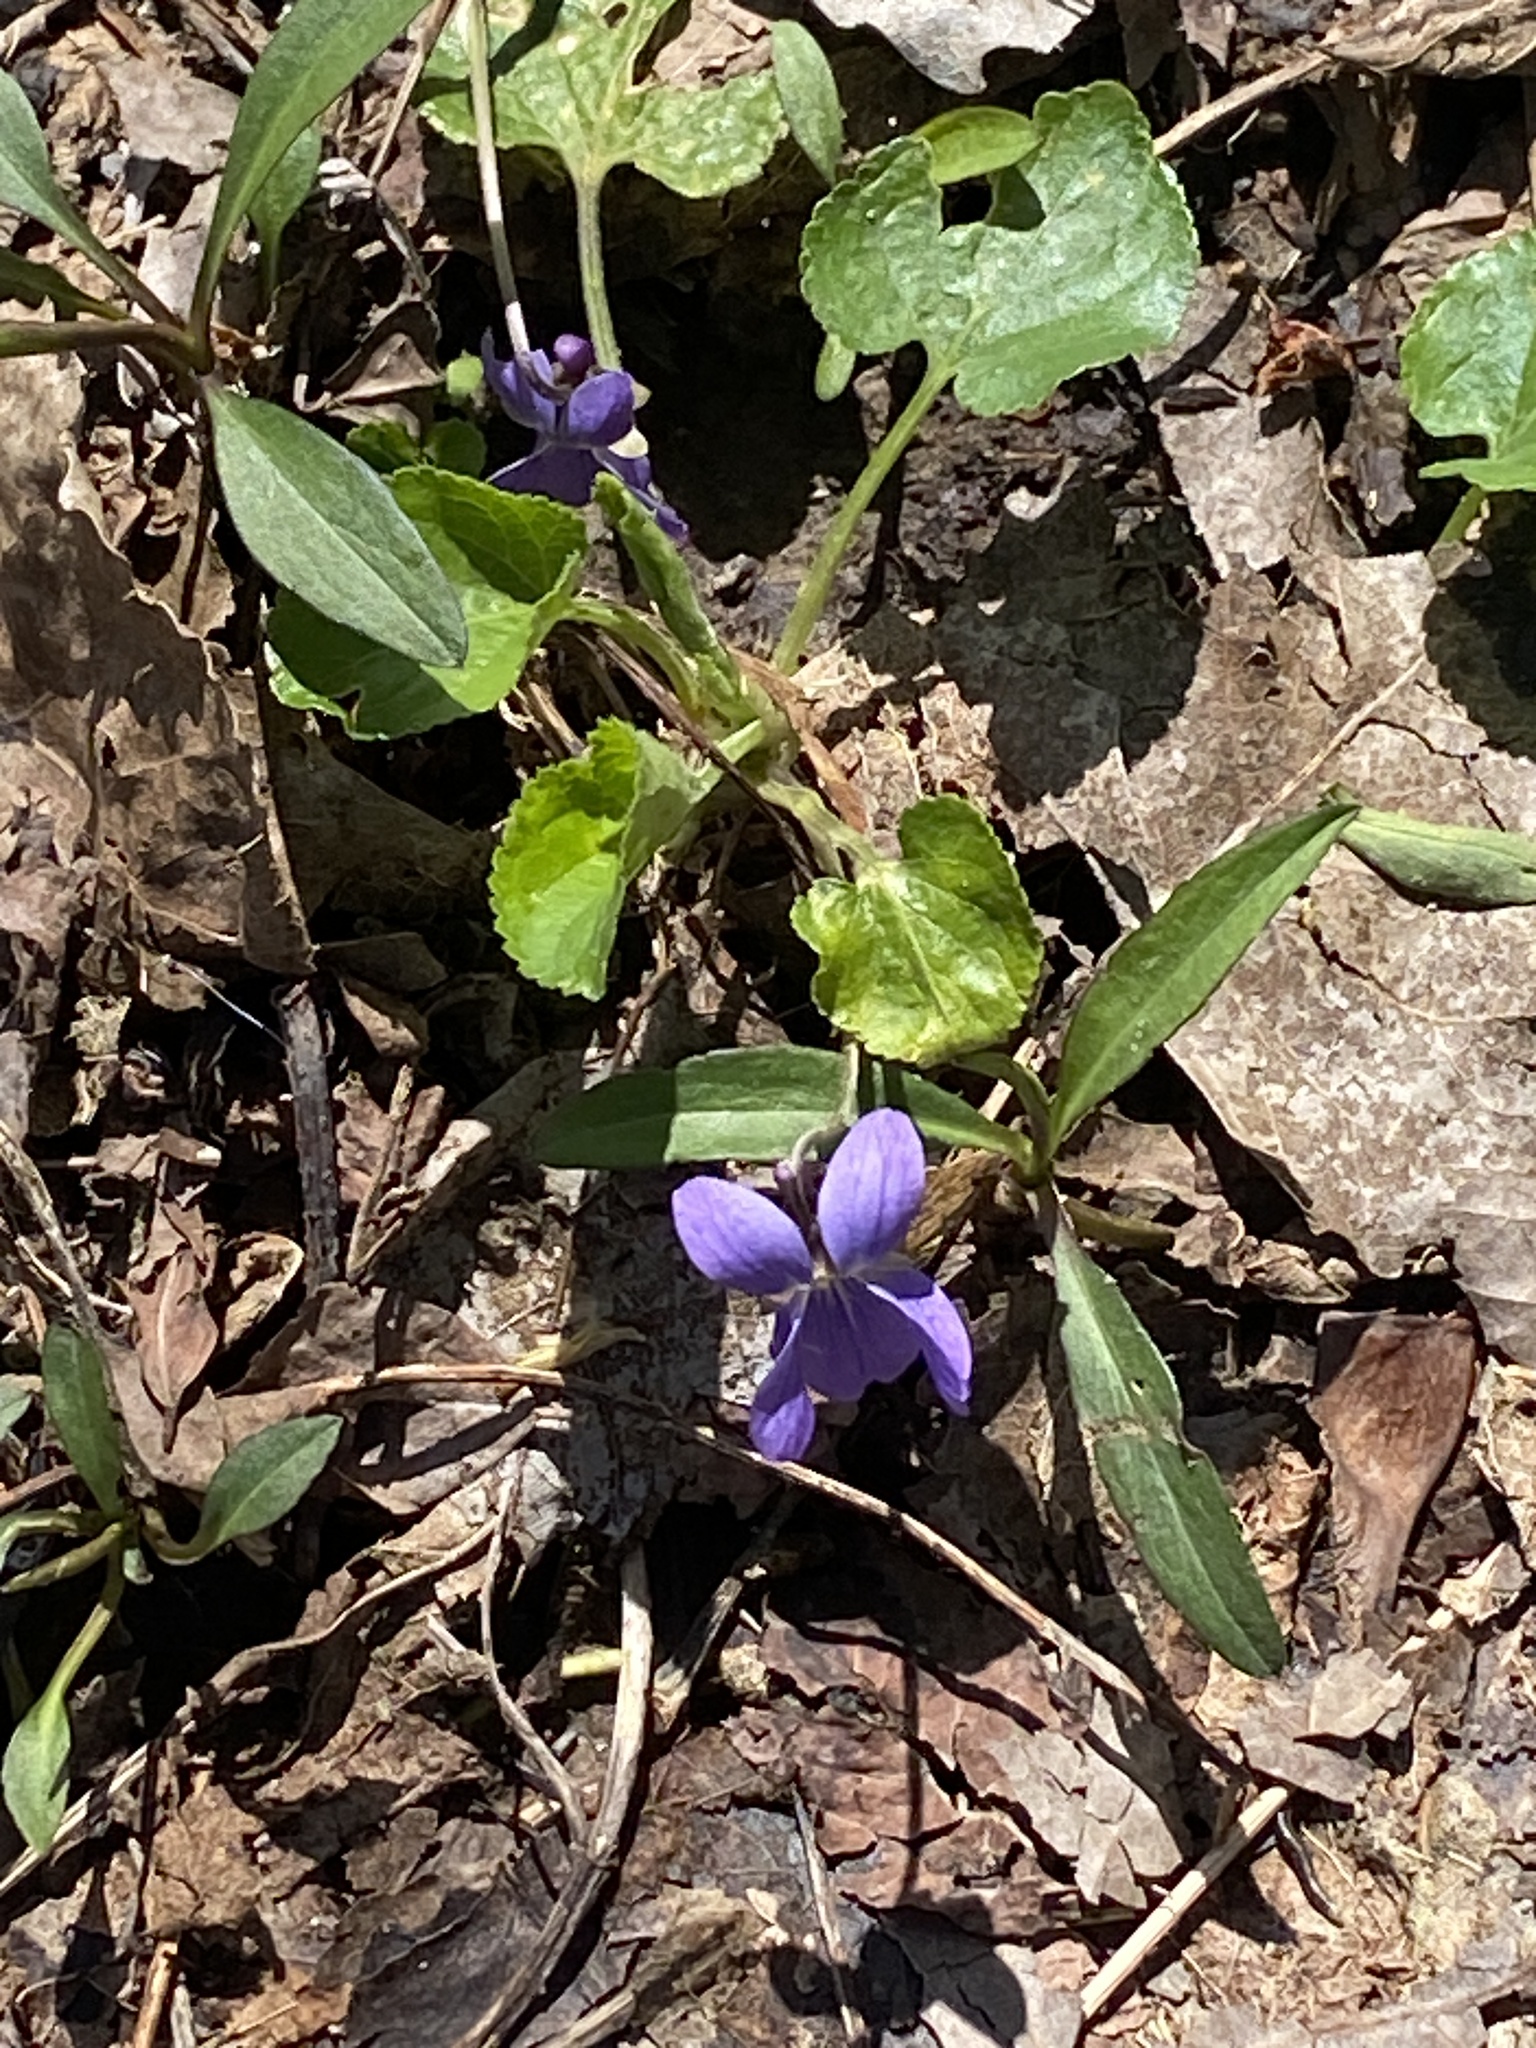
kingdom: Plantae
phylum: Tracheophyta
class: Magnoliopsida
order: Malpighiales
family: Violaceae
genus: Viola
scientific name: Viola odorata
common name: Sweet violet
